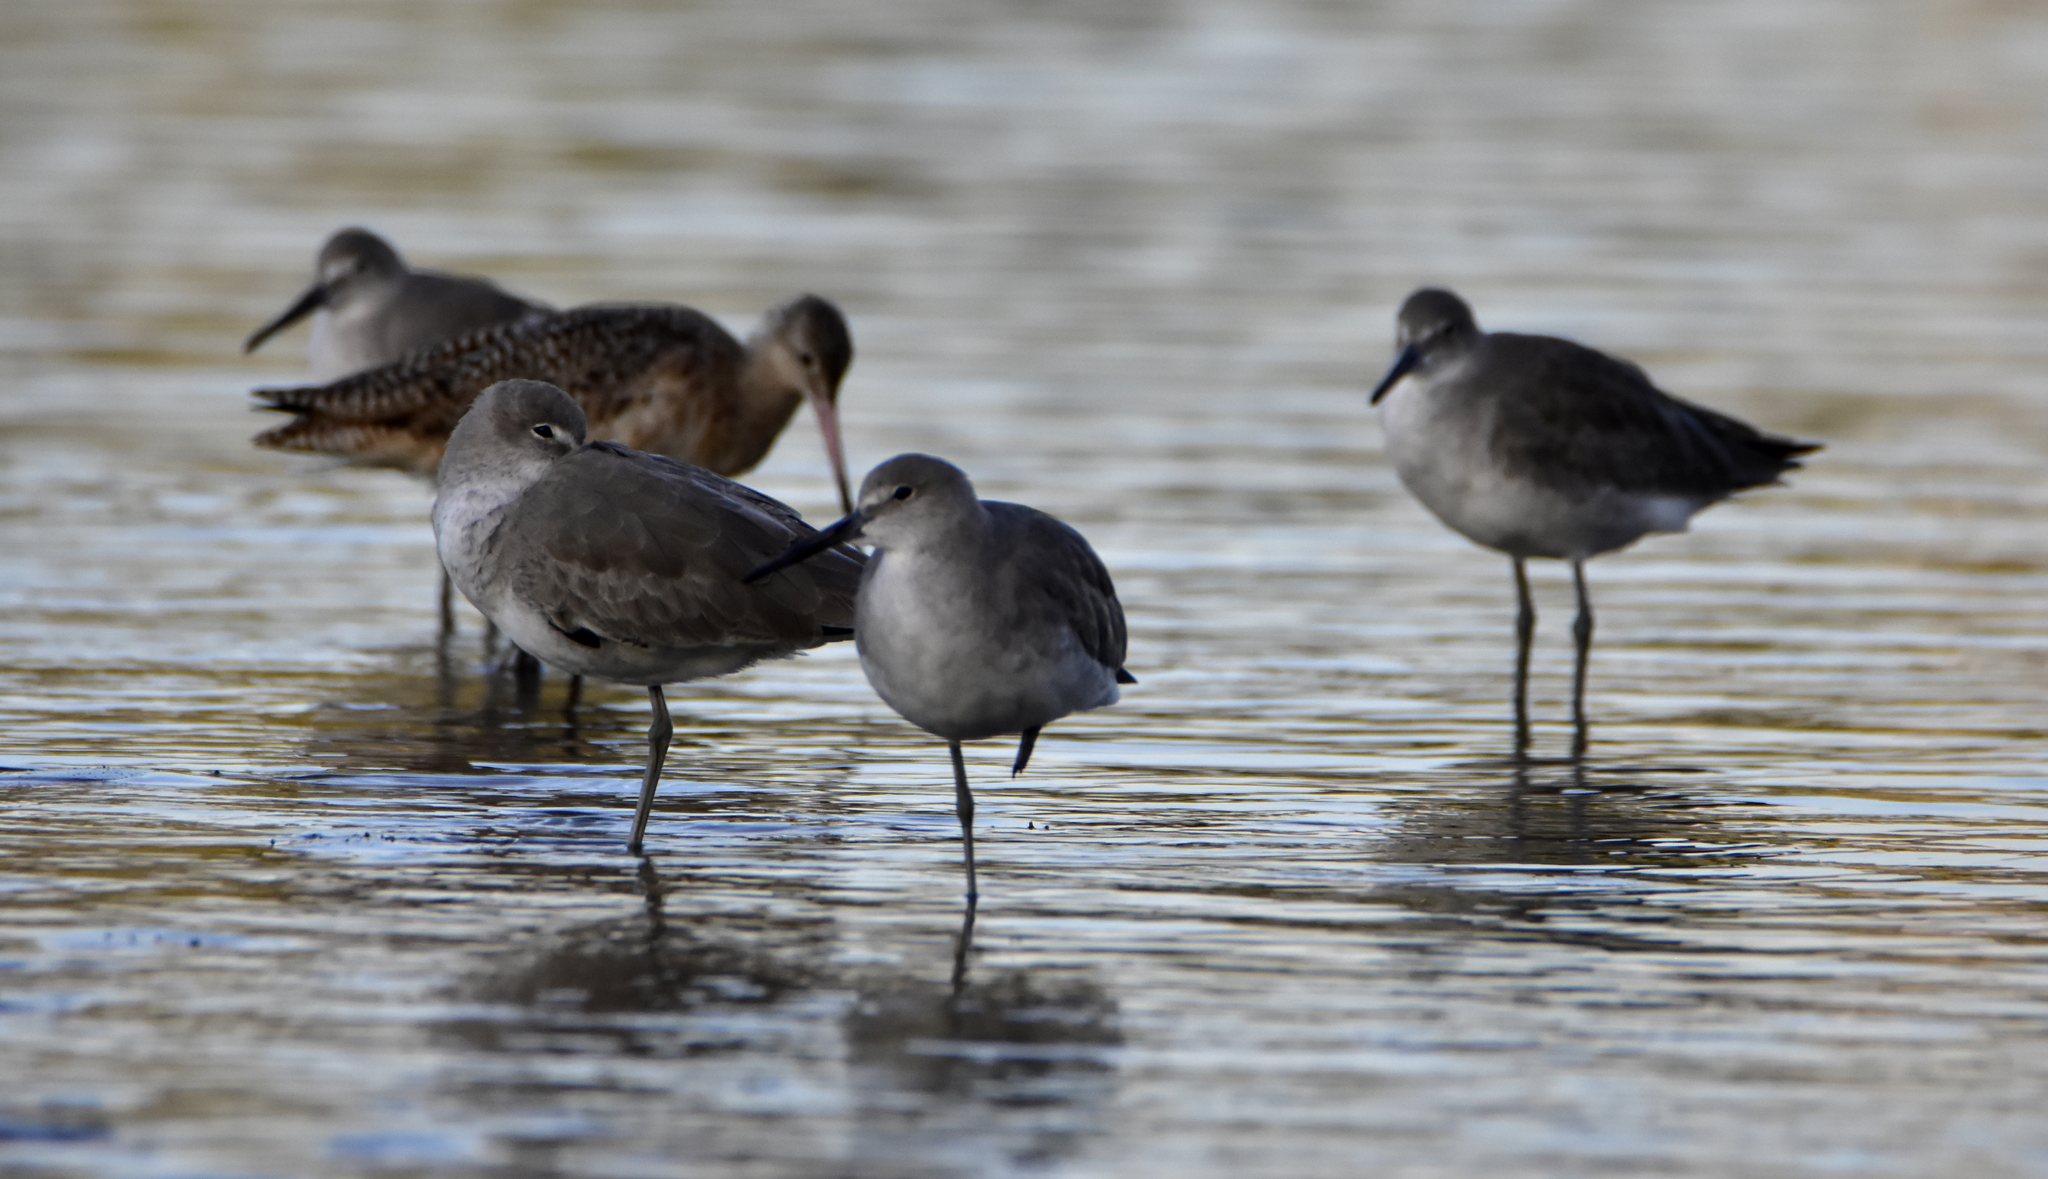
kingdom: Animalia
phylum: Chordata
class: Aves
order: Charadriiformes
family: Scolopacidae
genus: Tringa
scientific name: Tringa semipalmata
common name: Willet
